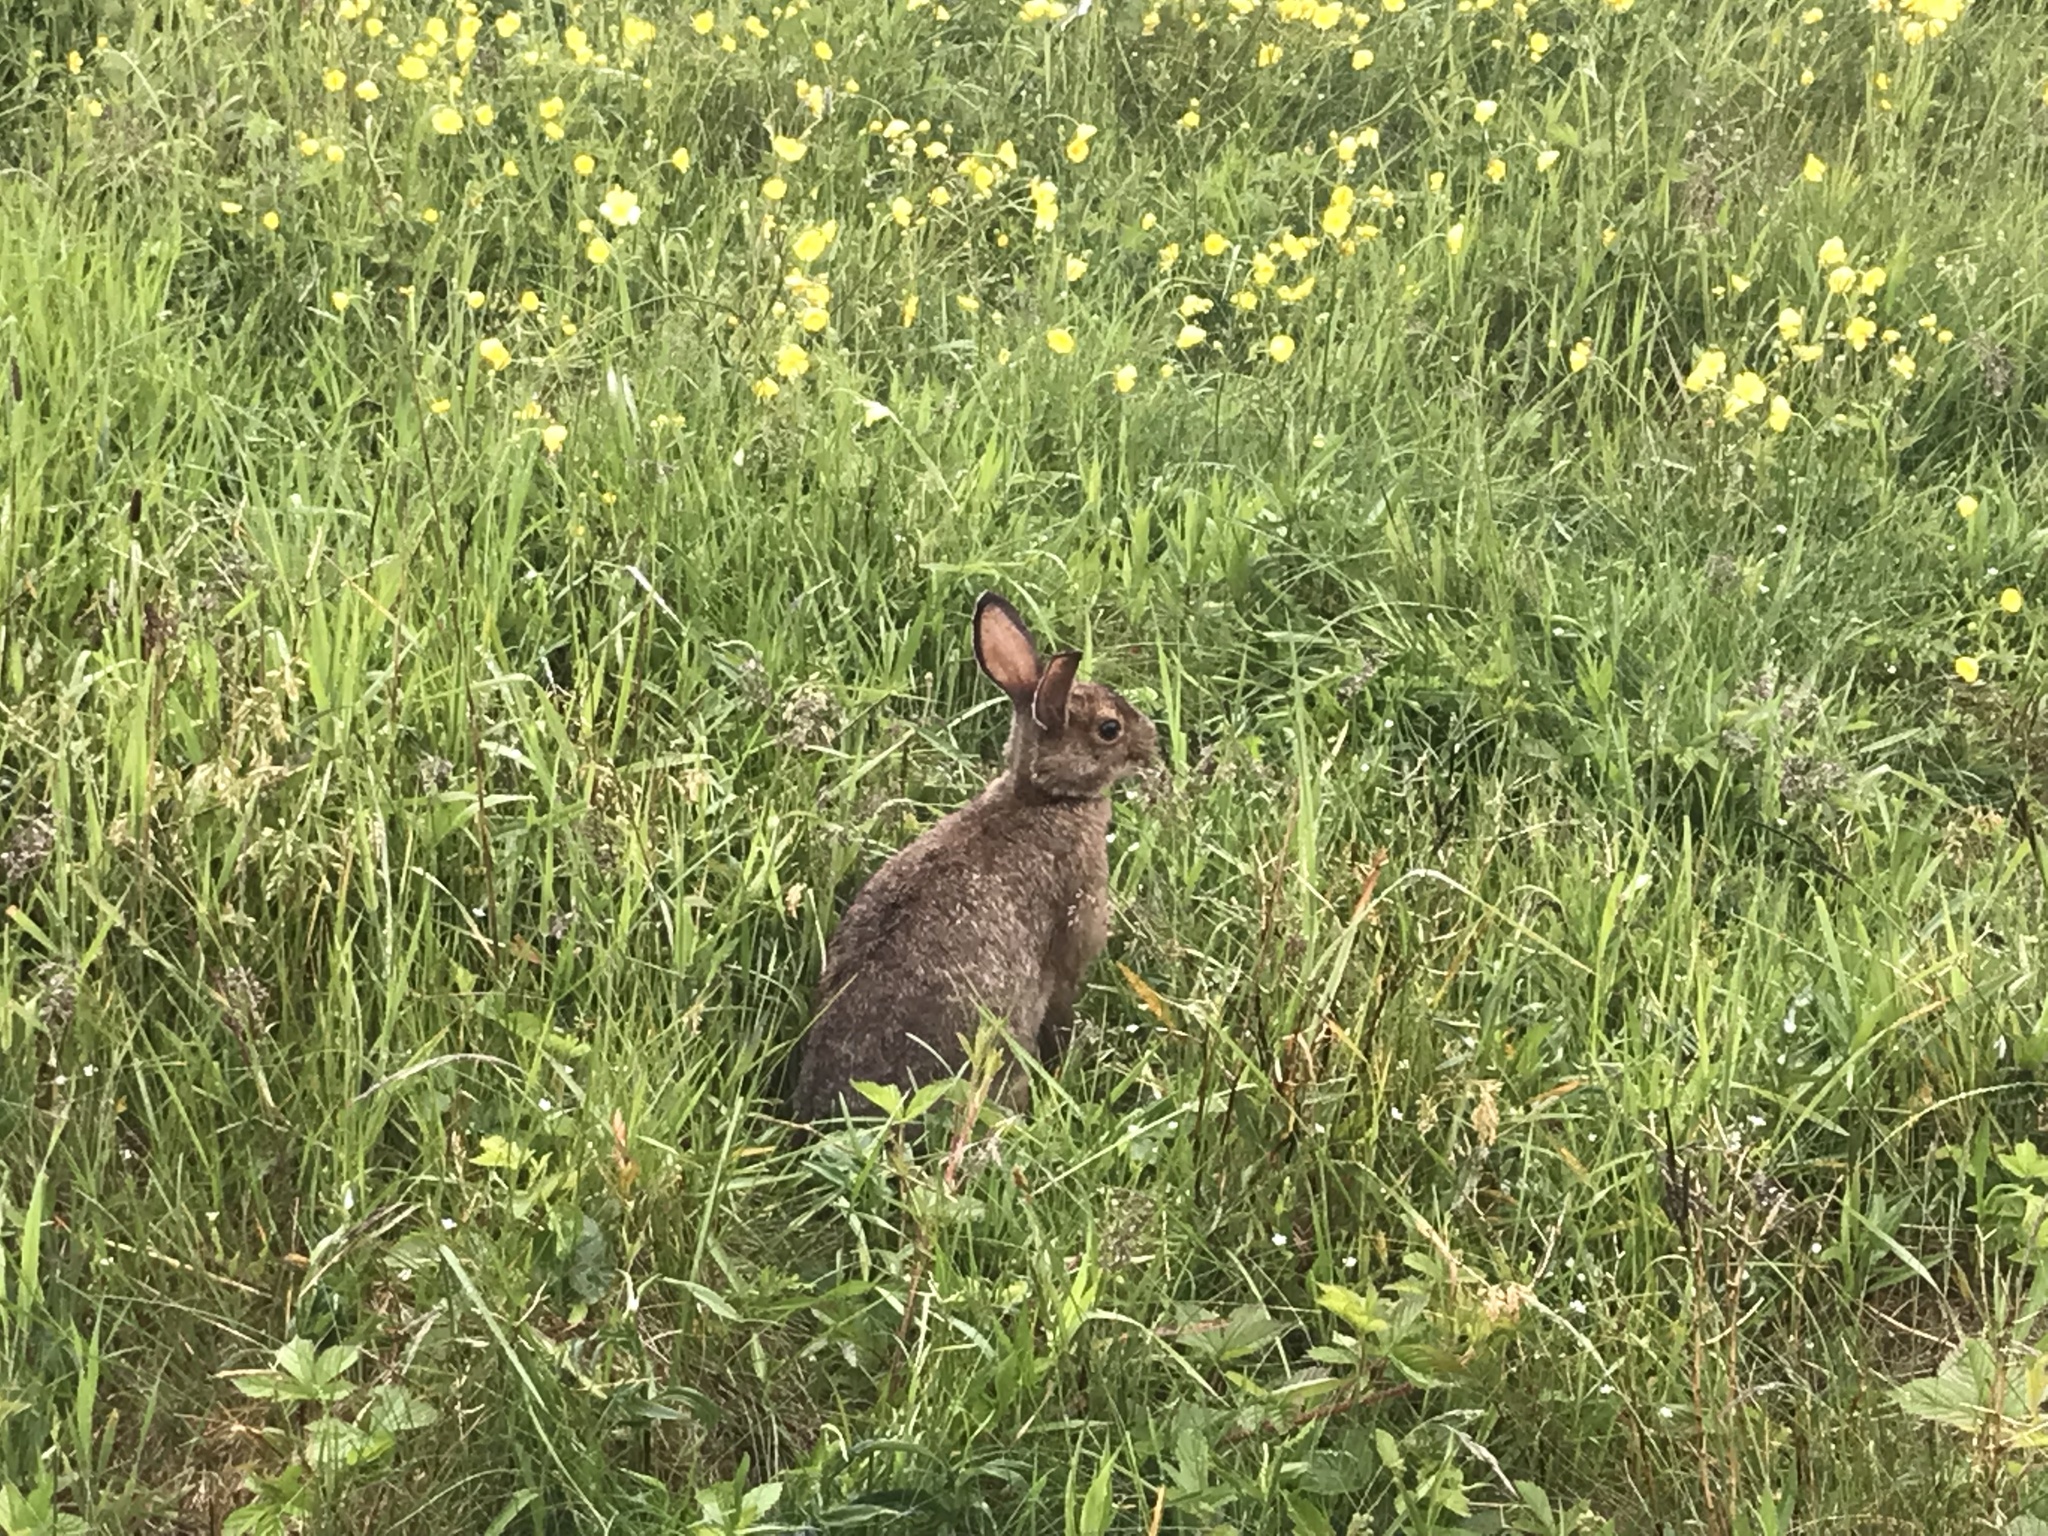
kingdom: Animalia
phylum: Chordata
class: Mammalia
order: Lagomorpha
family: Leporidae
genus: Lepus
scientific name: Lepus americanus
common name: Snowshoe hare
